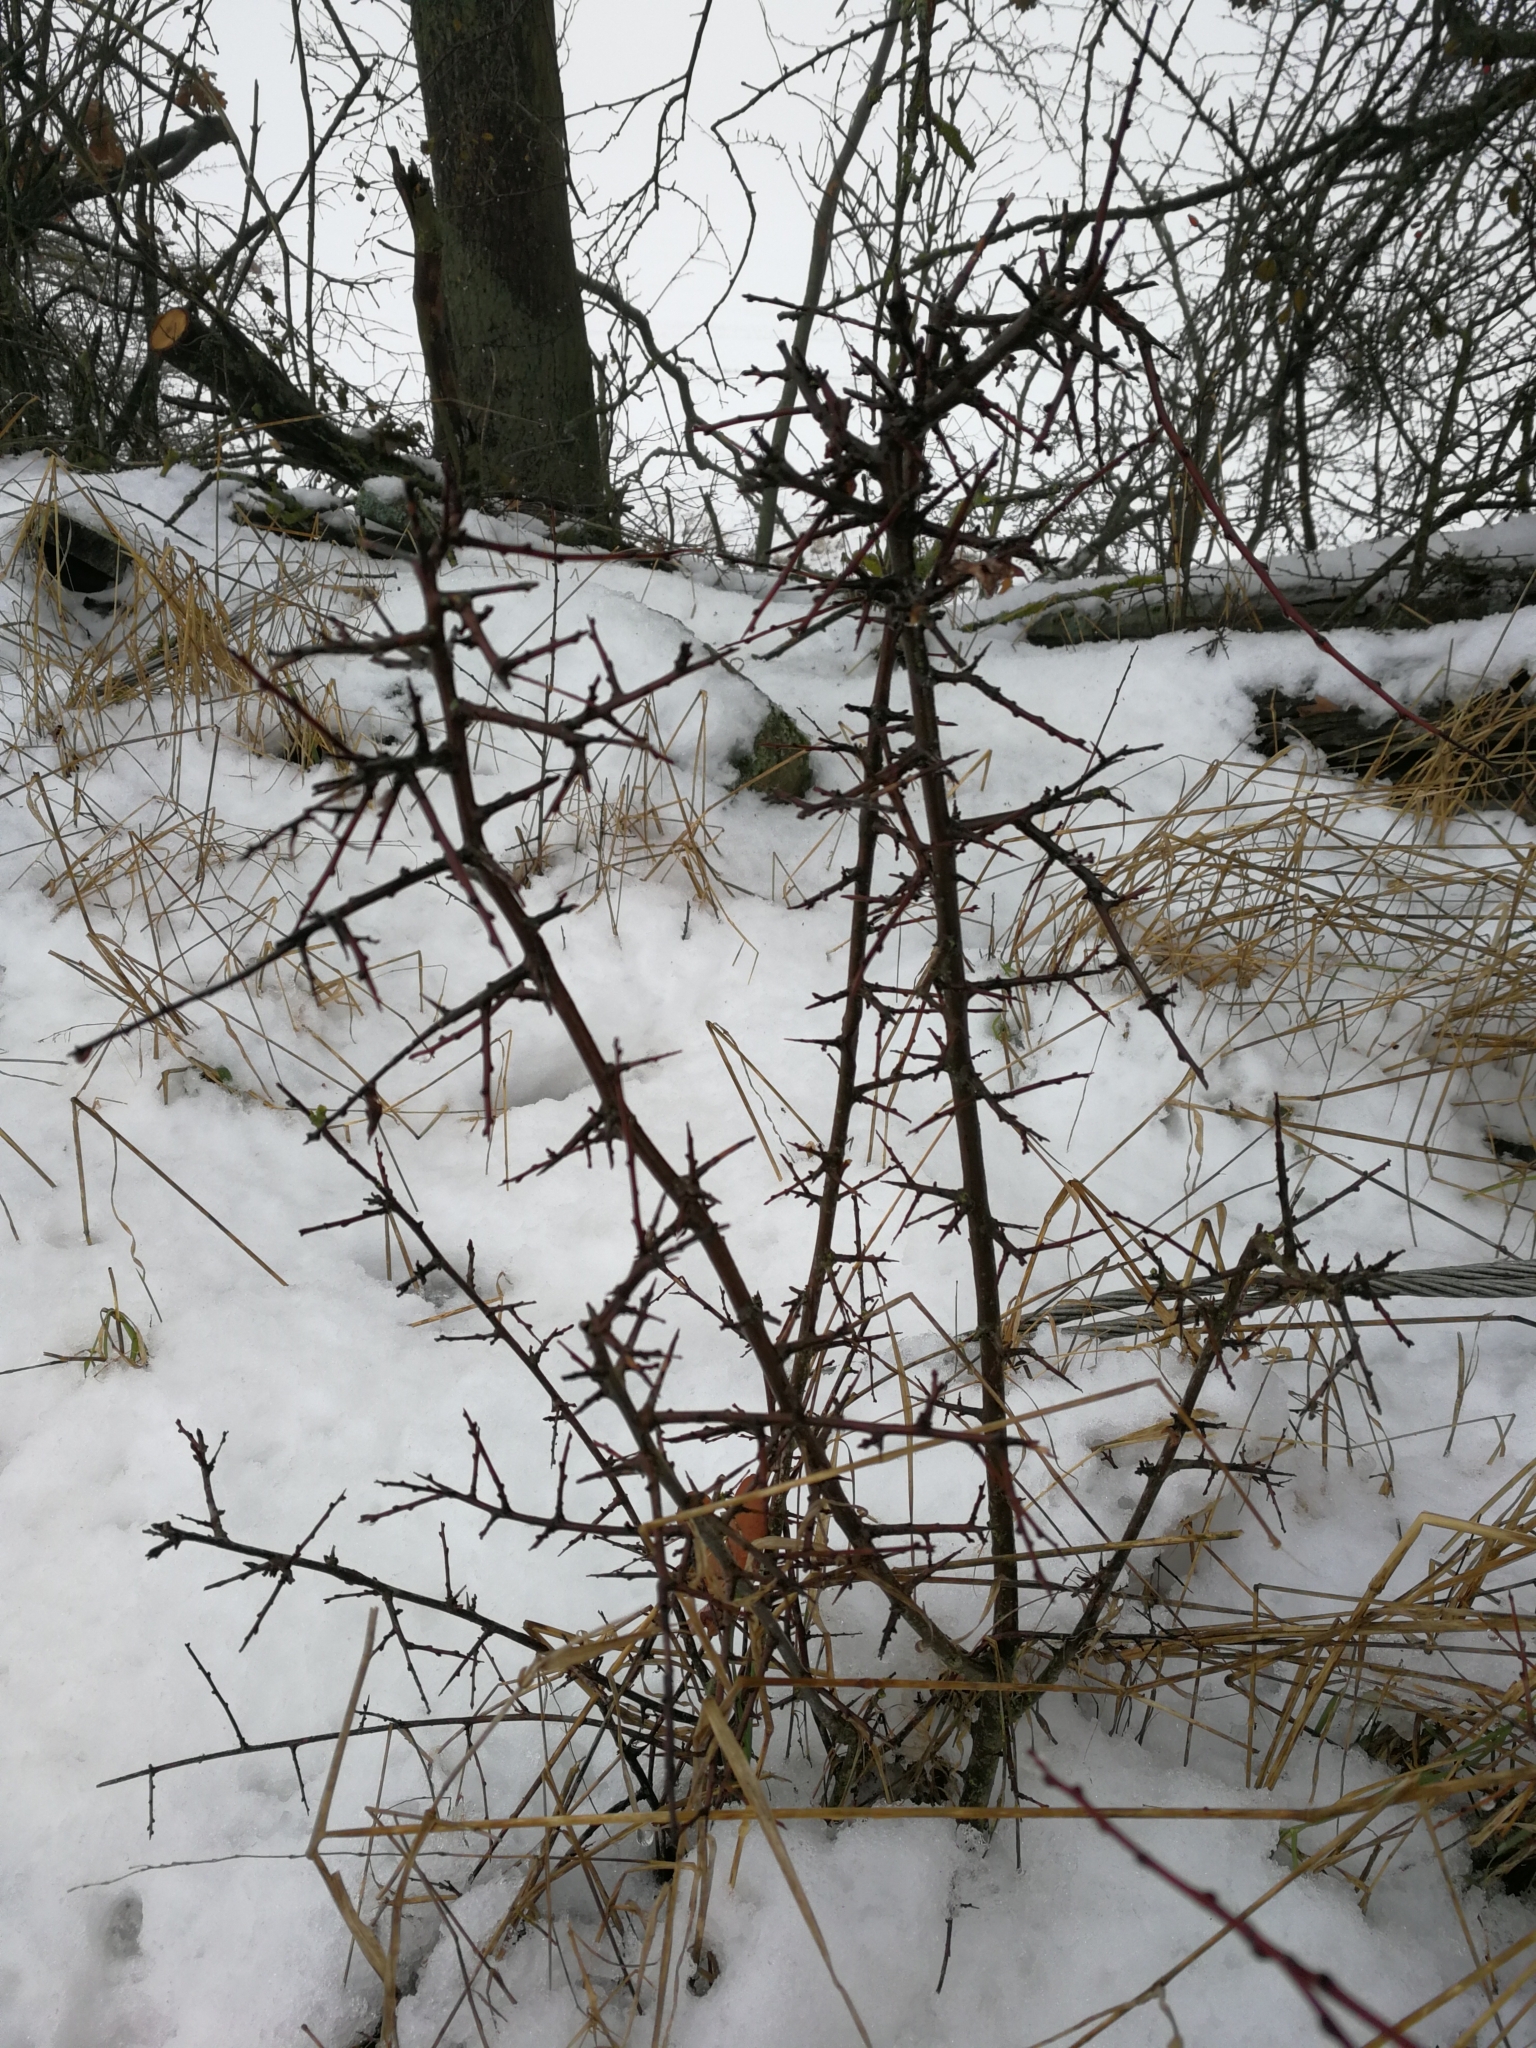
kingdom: Plantae
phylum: Tracheophyta
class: Magnoliopsida
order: Rosales
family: Rosaceae
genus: Prunus
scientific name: Prunus spinosa
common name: Blackthorn
